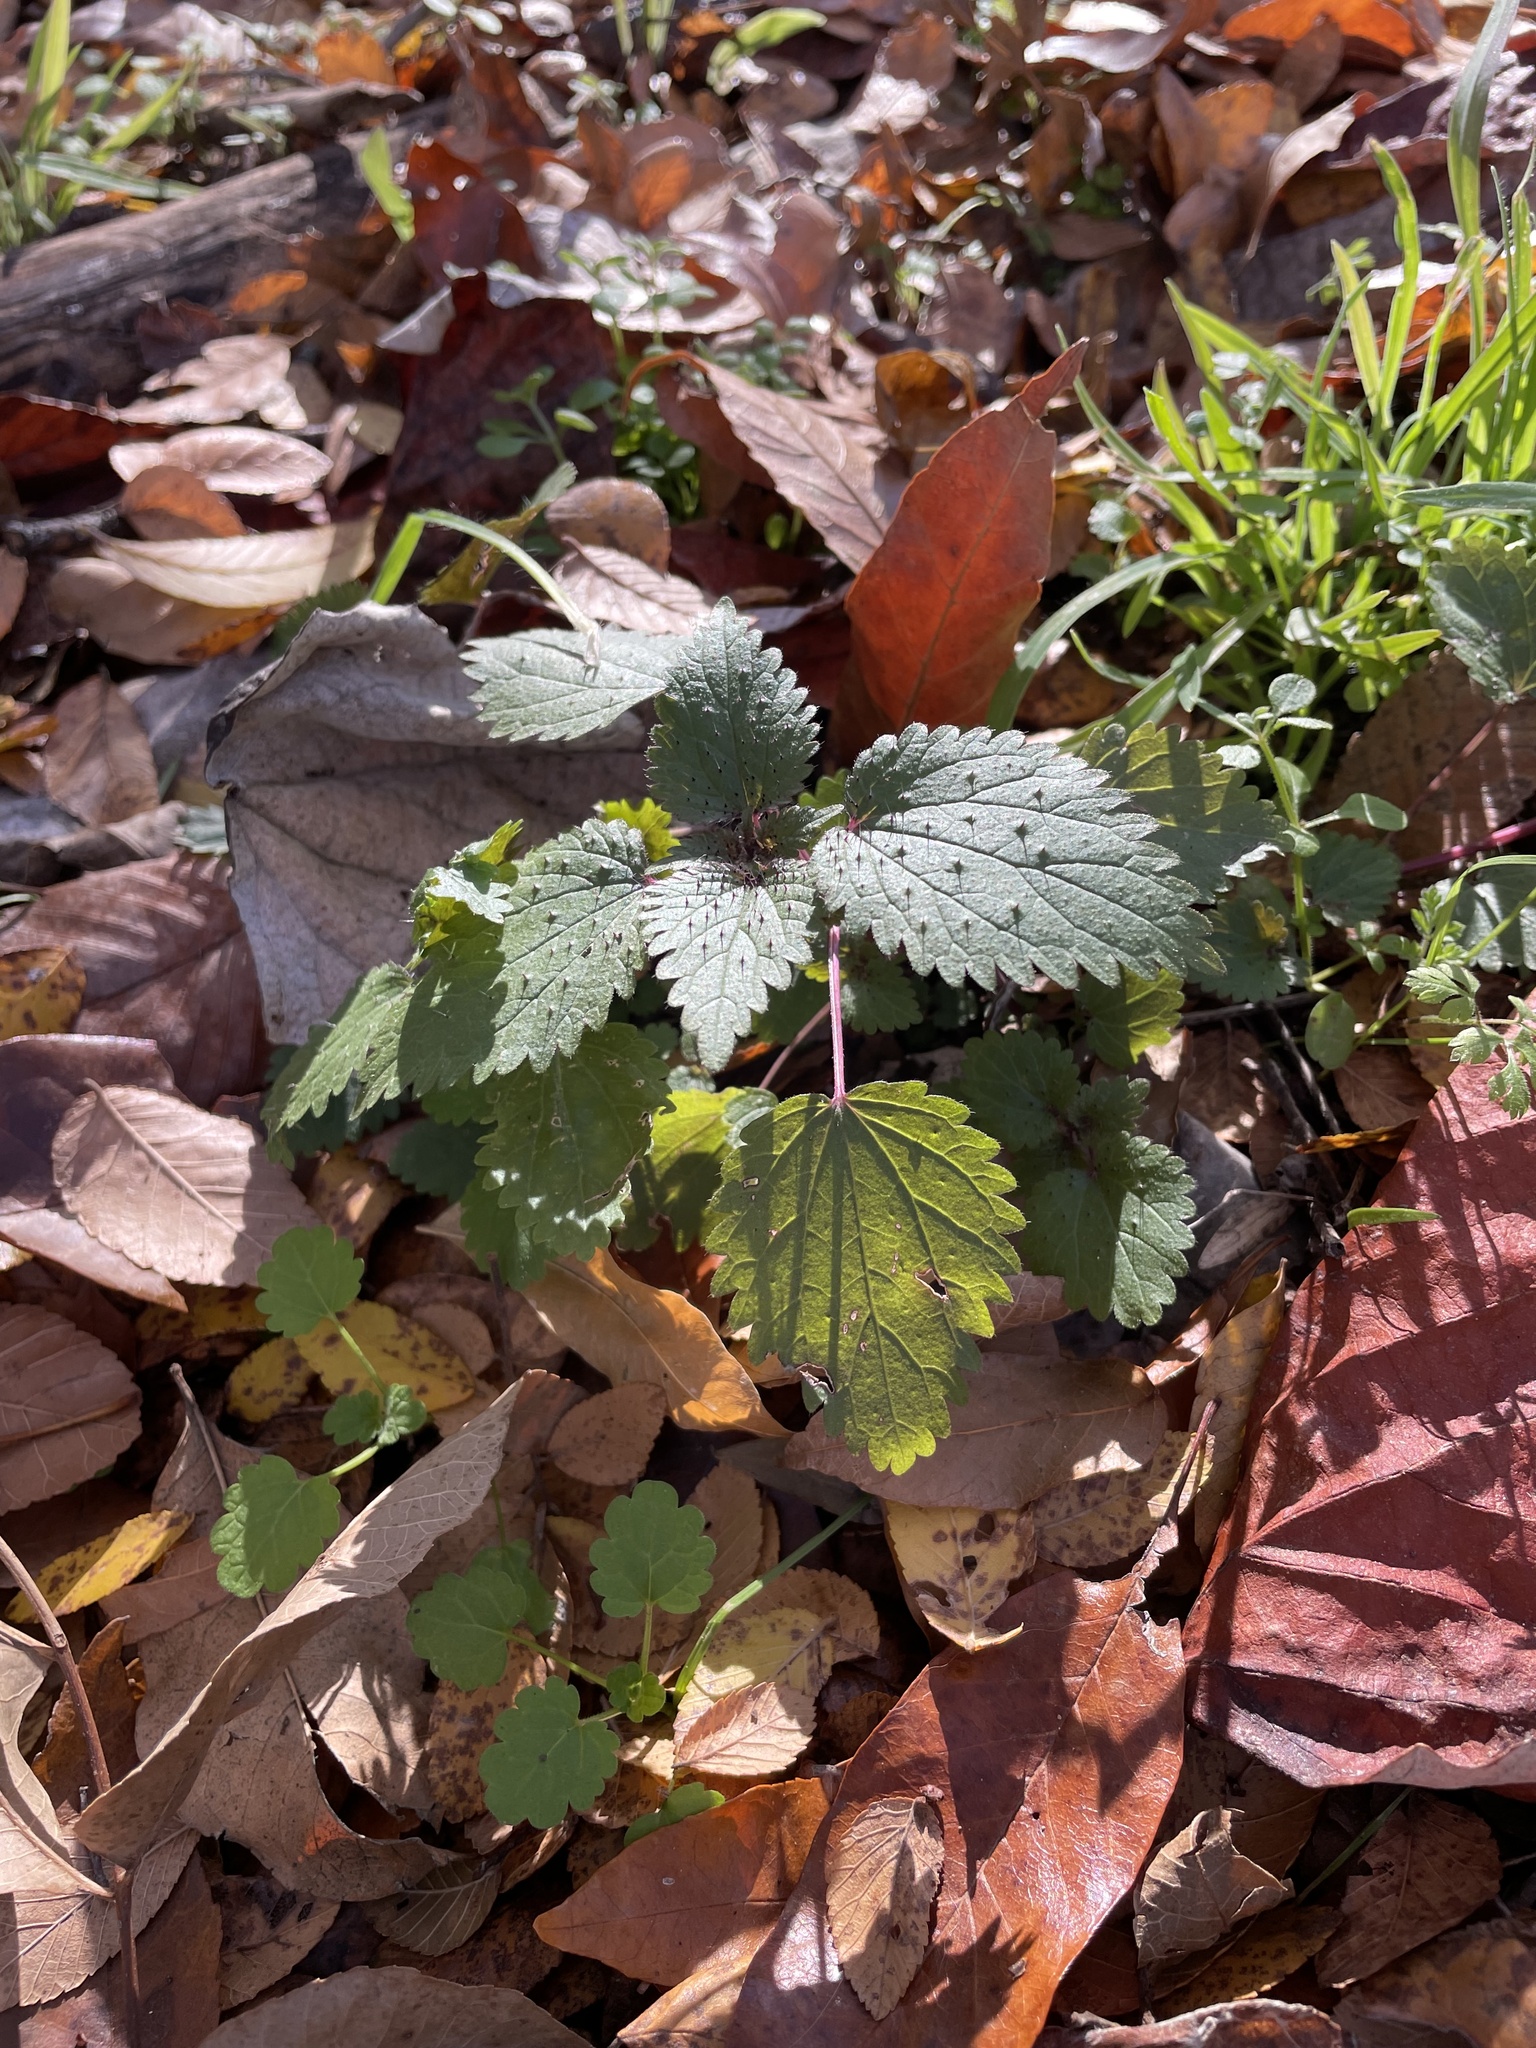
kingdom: Plantae
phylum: Tracheophyta
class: Magnoliopsida
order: Rosales
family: Urticaceae
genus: Urtica
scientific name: Urtica chamaedryoides
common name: Heart-leaf nettle
